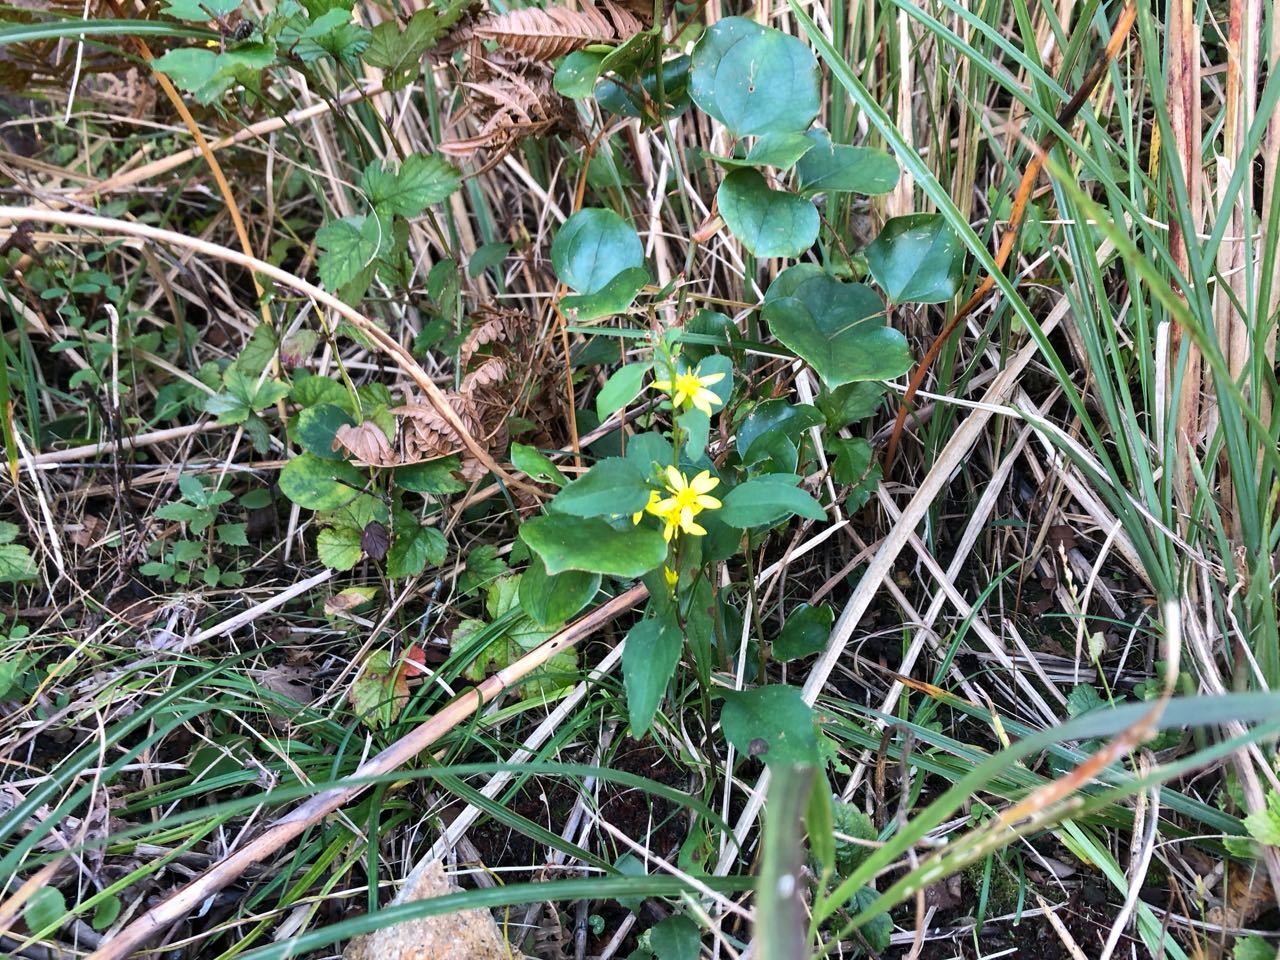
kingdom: Plantae
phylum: Tracheophyta
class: Magnoliopsida
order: Asterales
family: Asteraceae
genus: Solidago
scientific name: Solidago virgaurea
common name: Goldenrod
